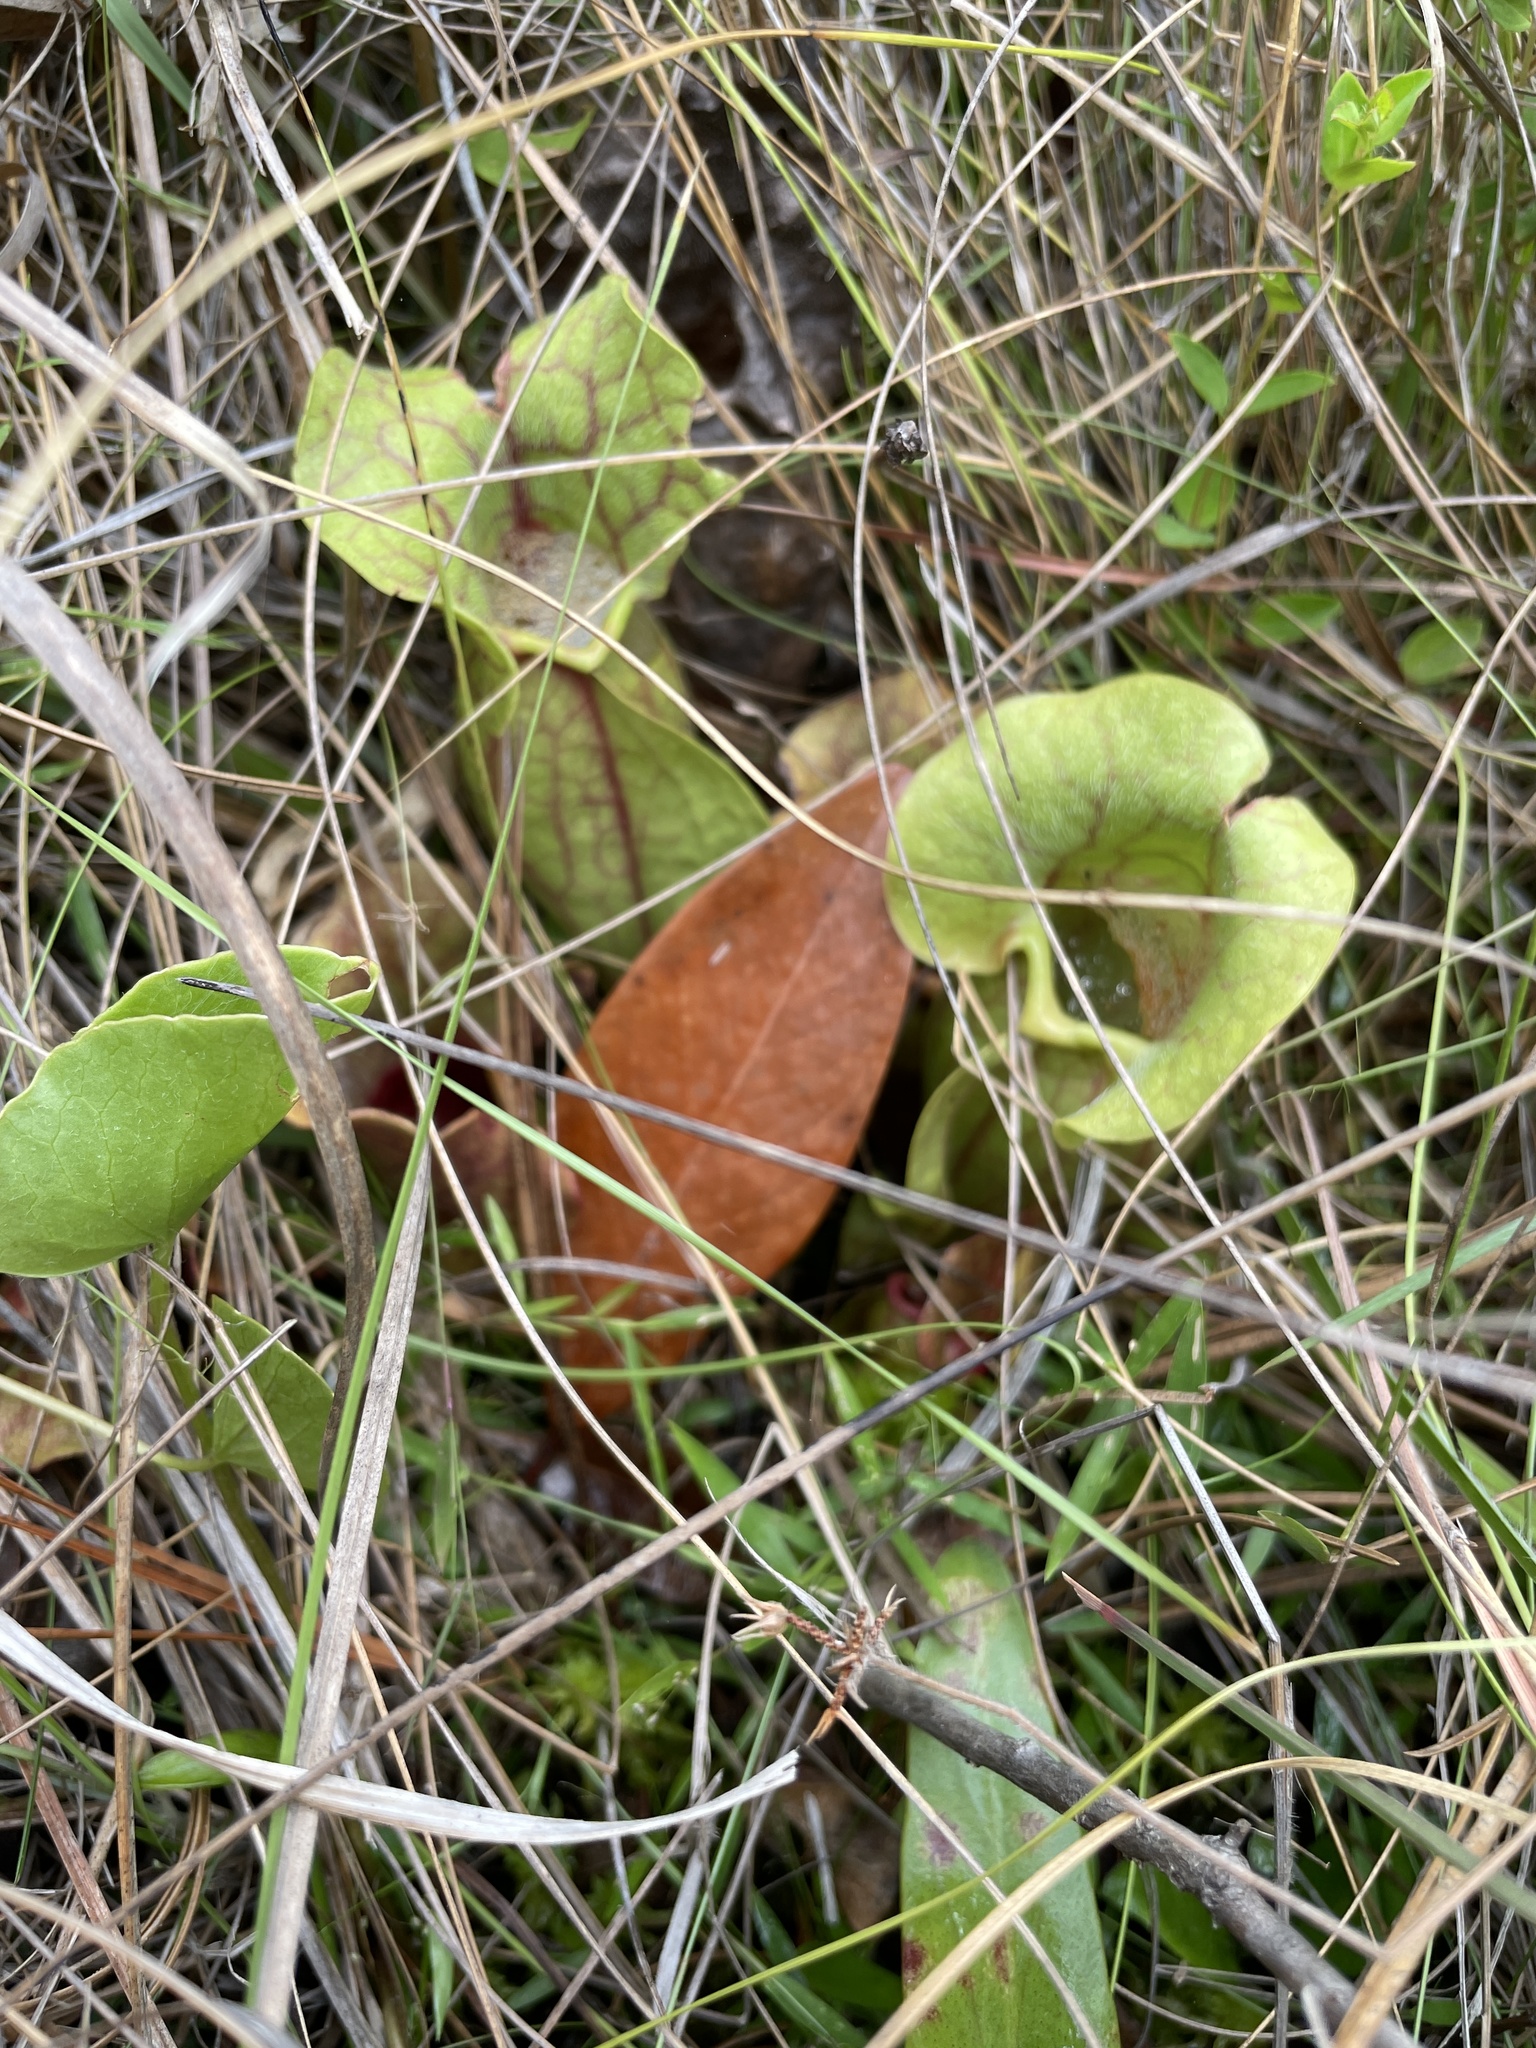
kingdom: Plantae
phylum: Tracheophyta
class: Magnoliopsida
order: Ericales
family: Sarraceniaceae
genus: Sarracenia
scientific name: Sarracenia rosea
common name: Pink pitcherplant
